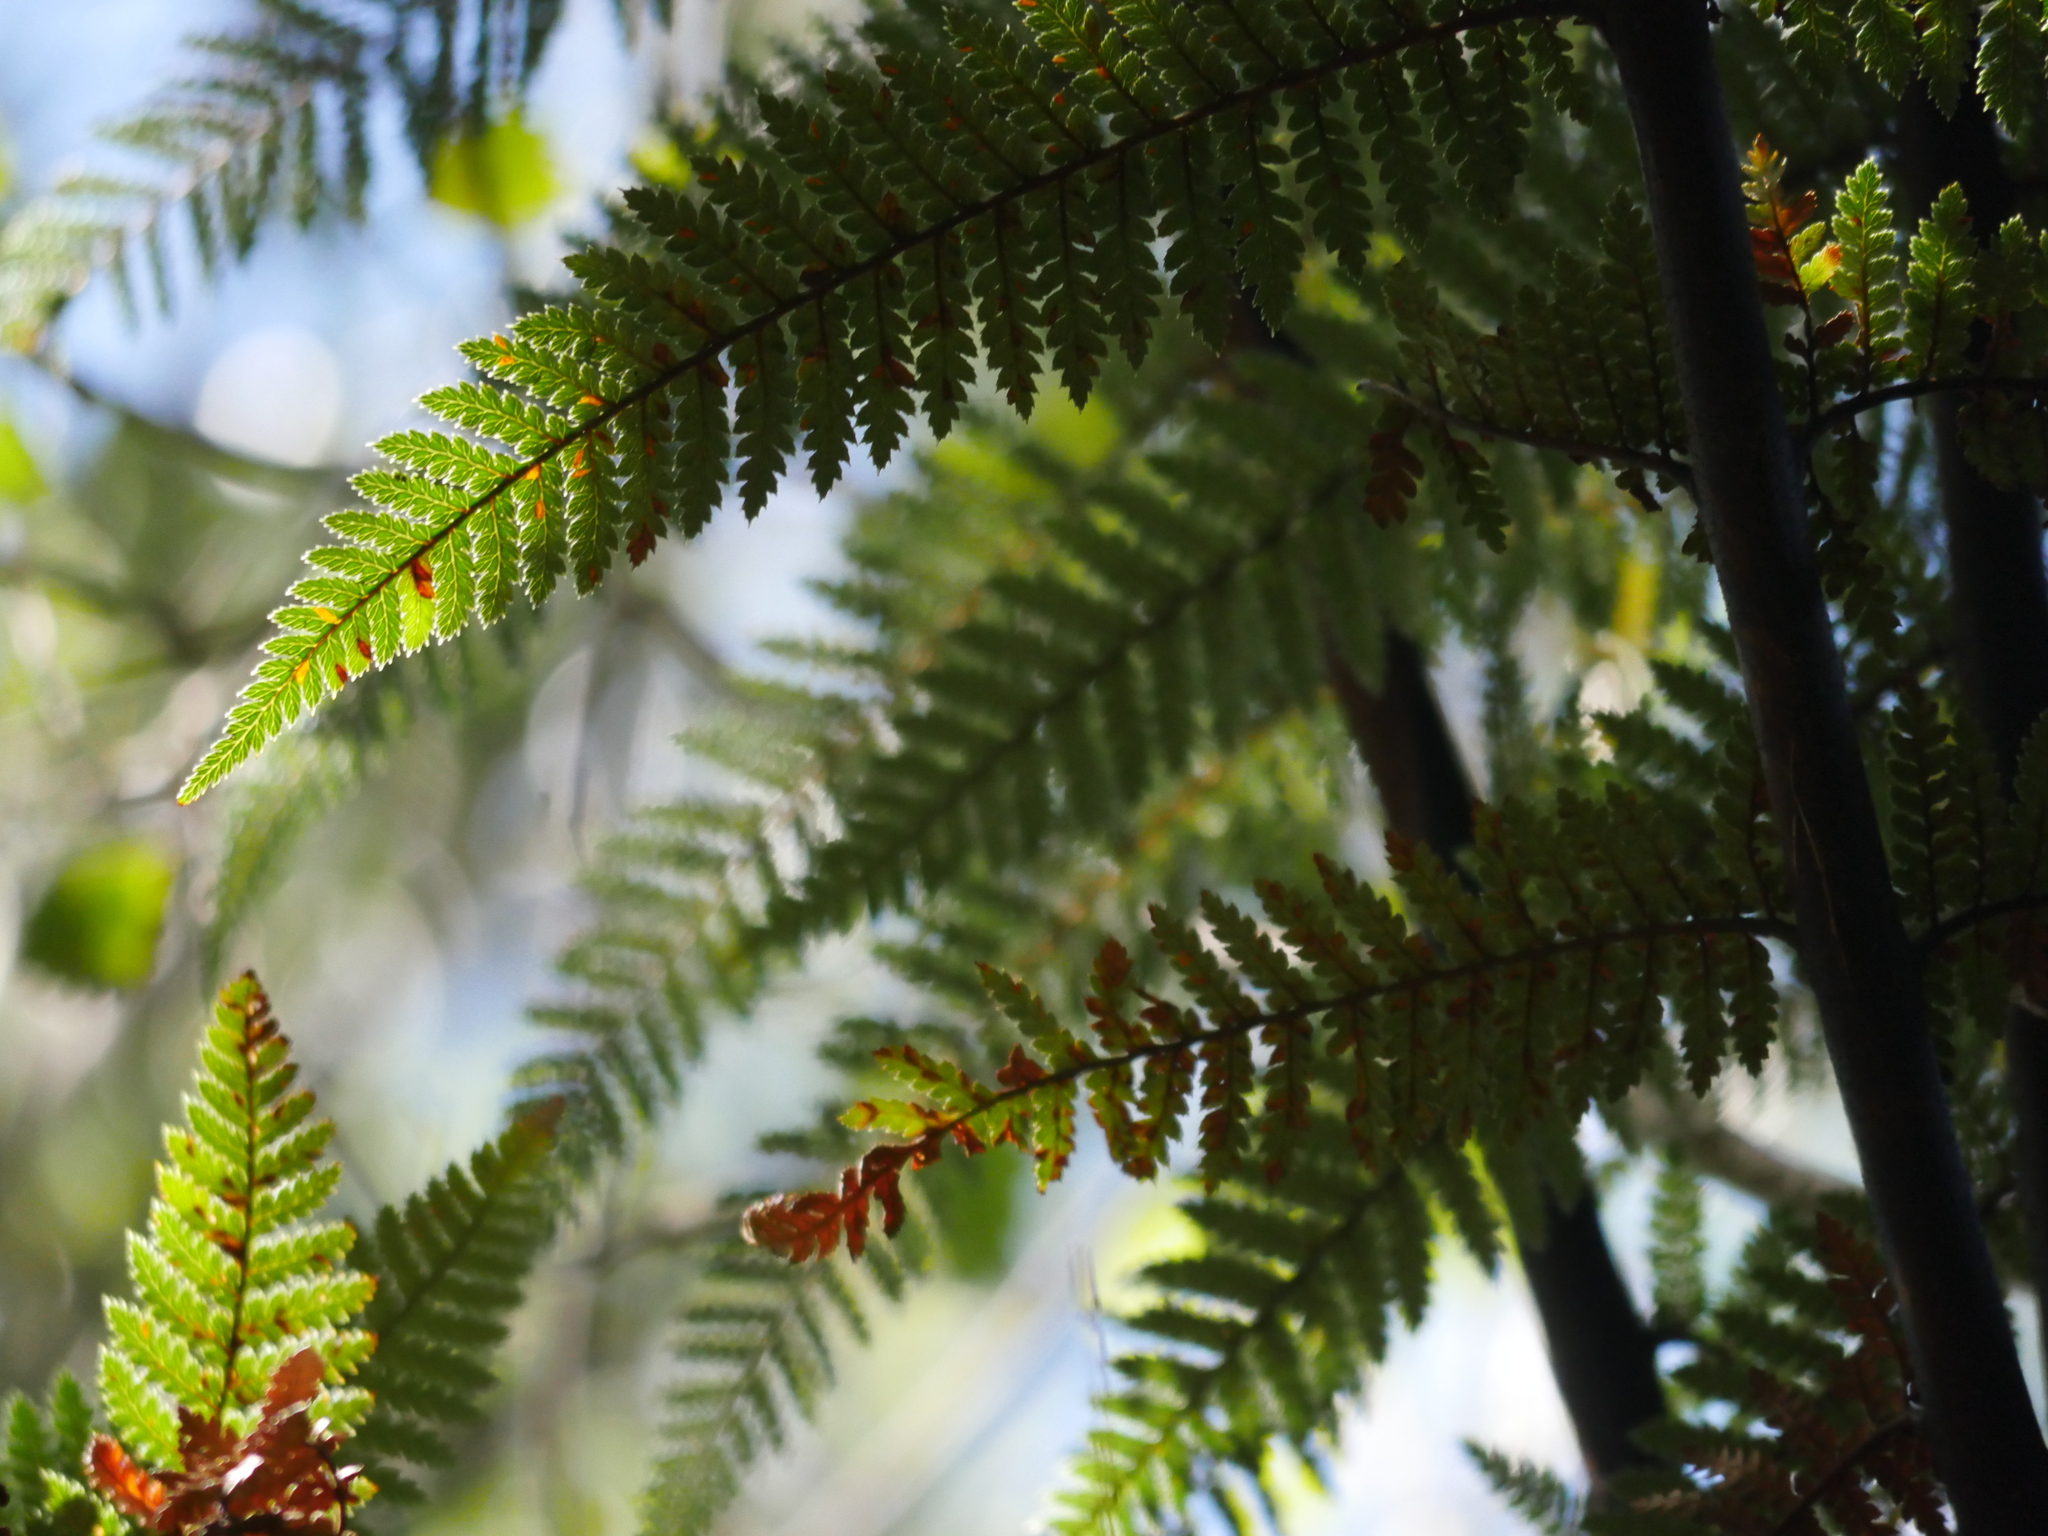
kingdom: Plantae
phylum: Tracheophyta
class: Polypodiopsida
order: Cyatheales
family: Dicksoniaceae
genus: Dicksonia
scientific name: Dicksonia squarrosa
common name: Hard treefern
